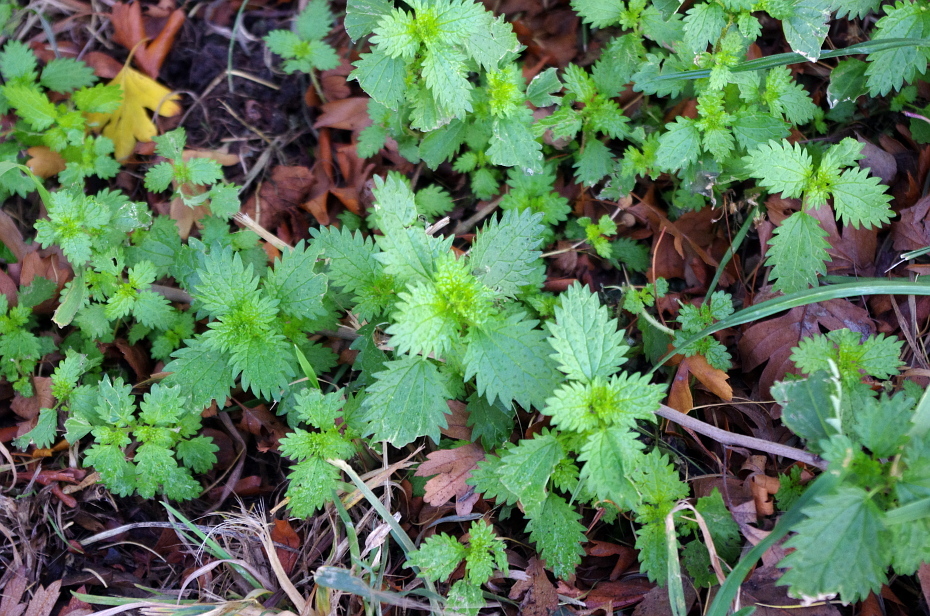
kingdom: Plantae
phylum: Tracheophyta
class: Magnoliopsida
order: Rosales
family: Urticaceae
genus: Urtica
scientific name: Urtica urens
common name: Dwarf nettle
